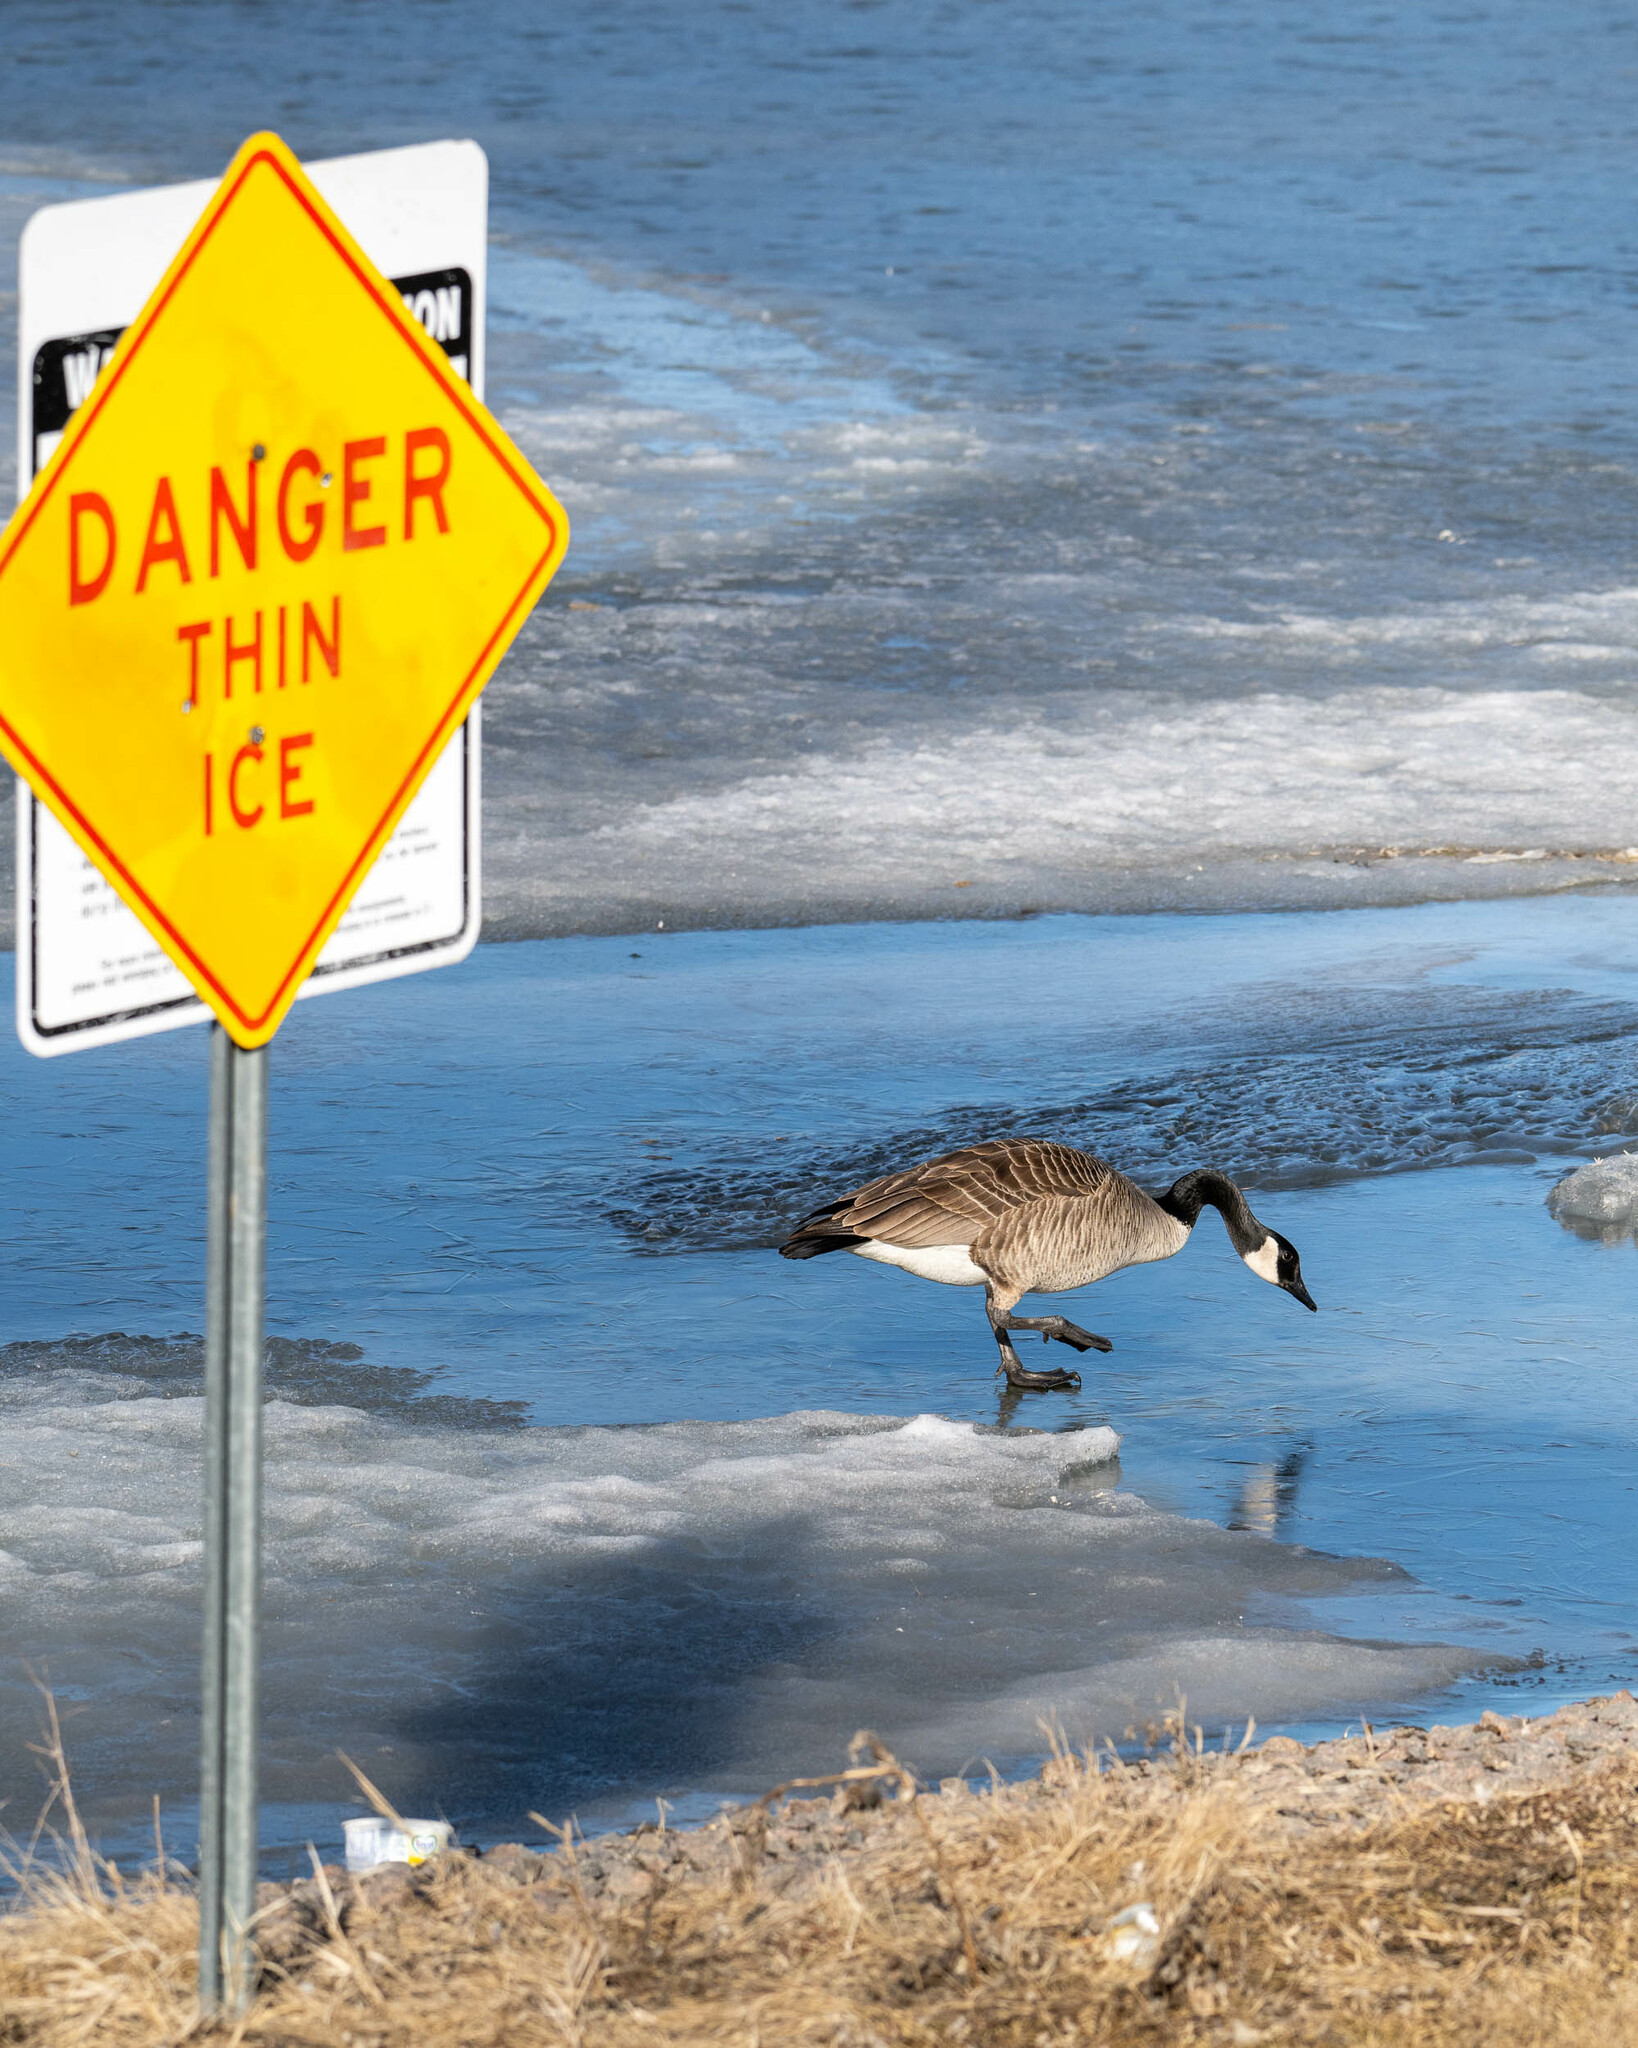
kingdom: Animalia
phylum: Chordata
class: Aves
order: Anseriformes
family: Anatidae
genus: Branta
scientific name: Branta canadensis
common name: Canada goose
